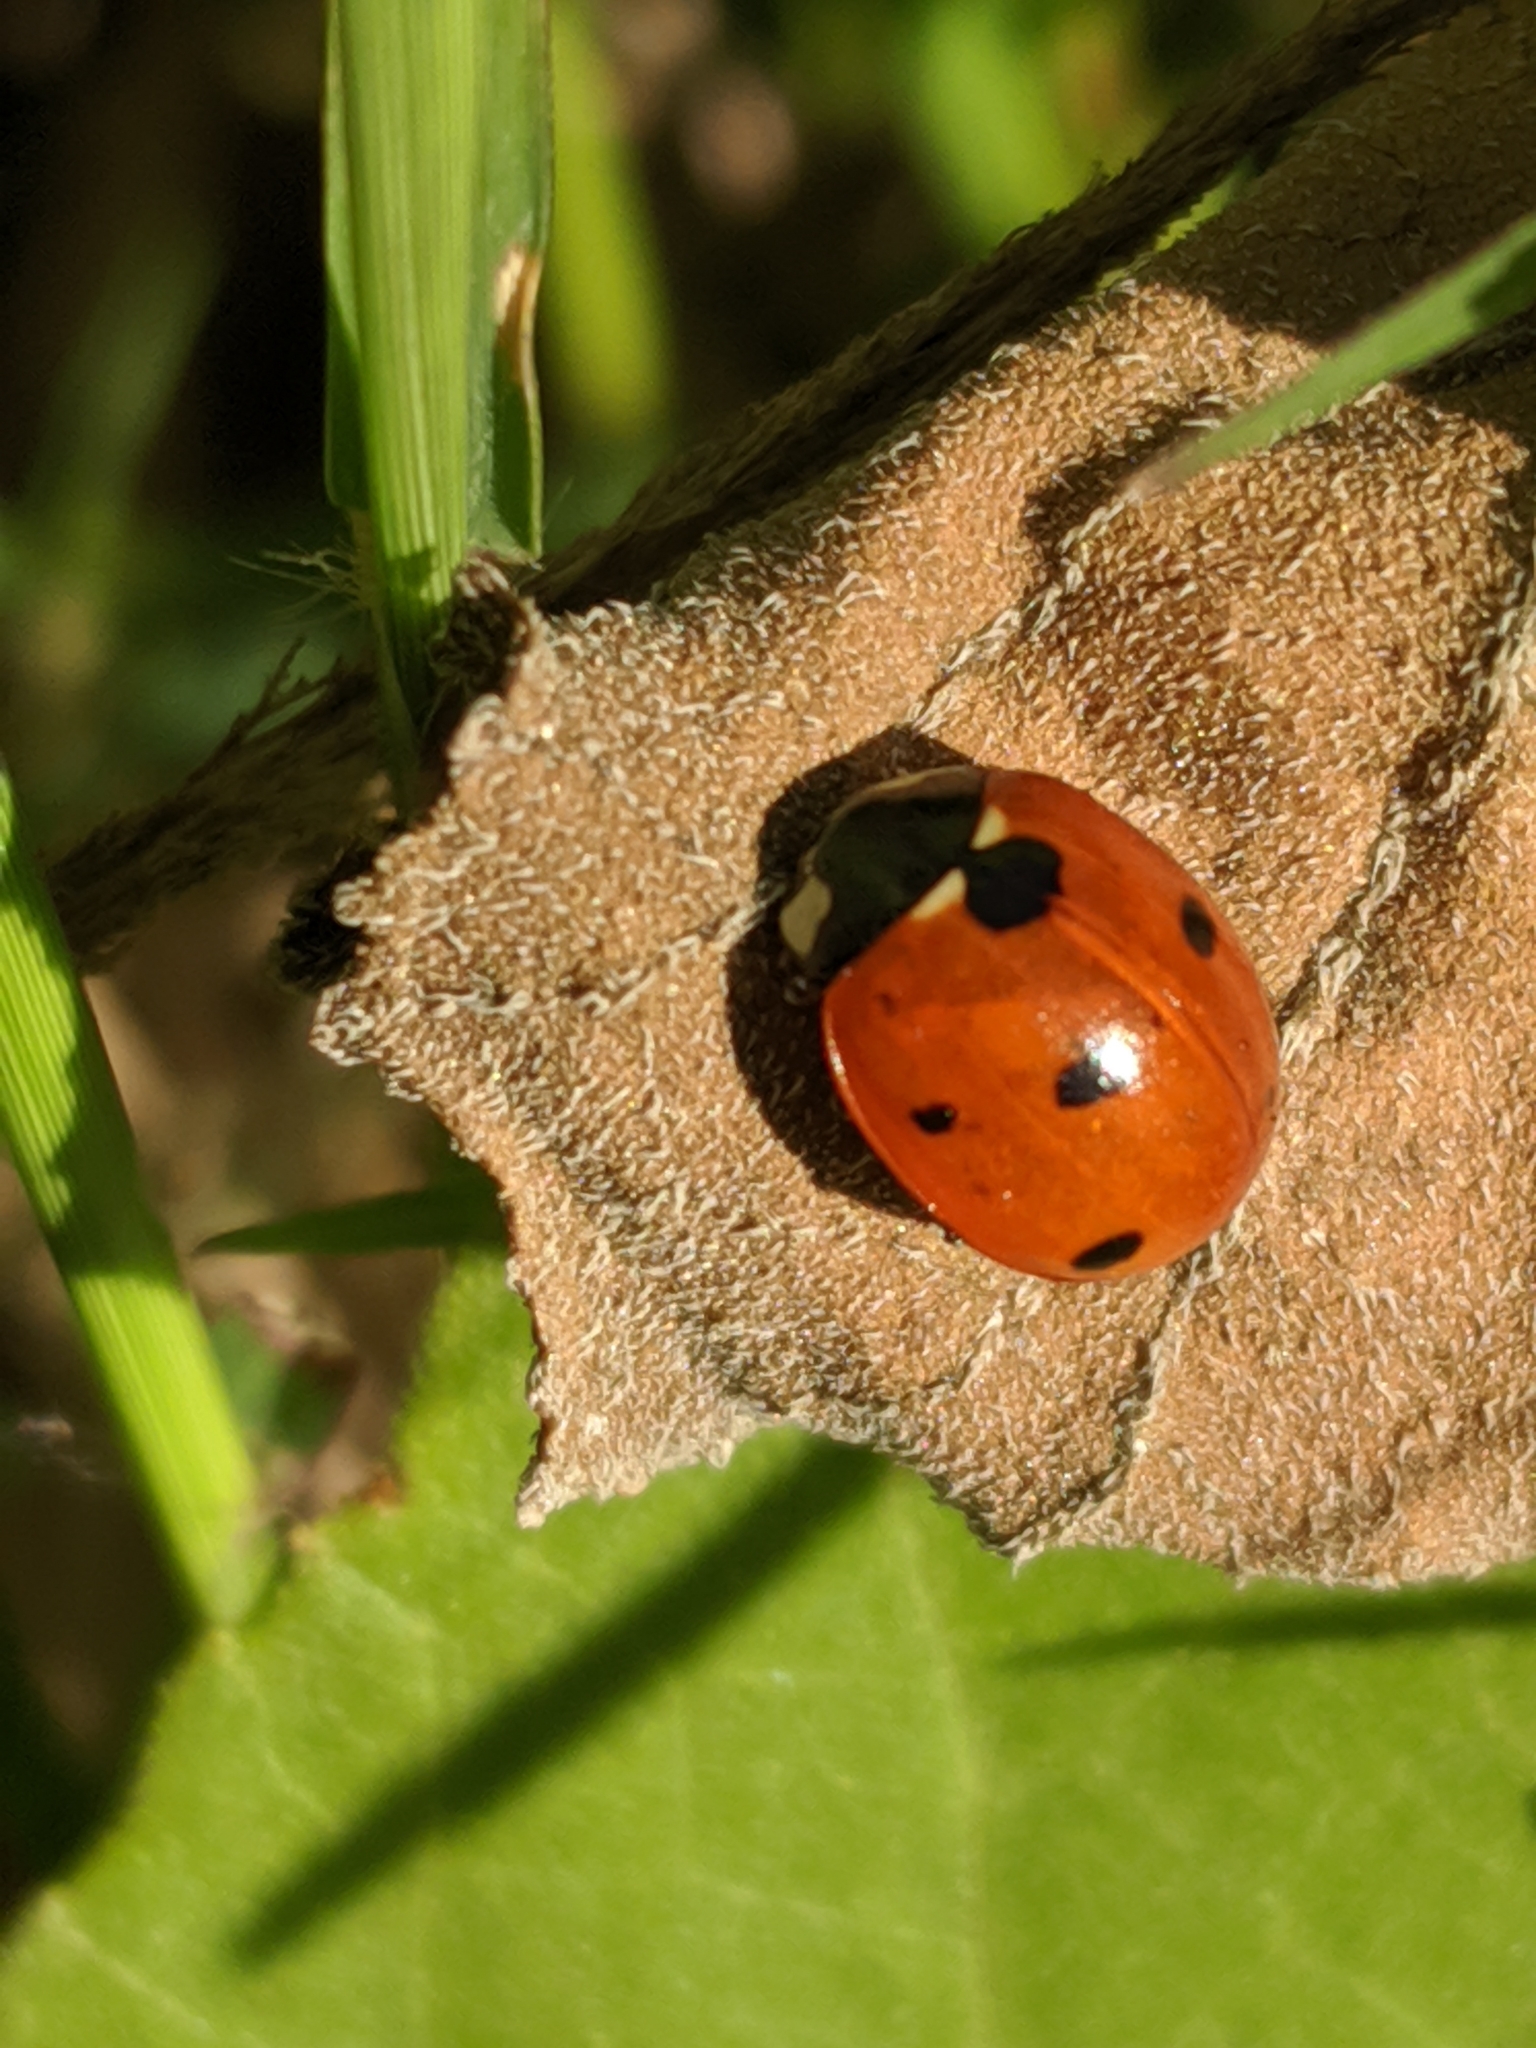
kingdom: Animalia
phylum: Arthropoda
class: Insecta
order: Coleoptera
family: Coccinellidae
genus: Coccinella
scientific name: Coccinella septempunctata
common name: Sevenspotted lady beetle
